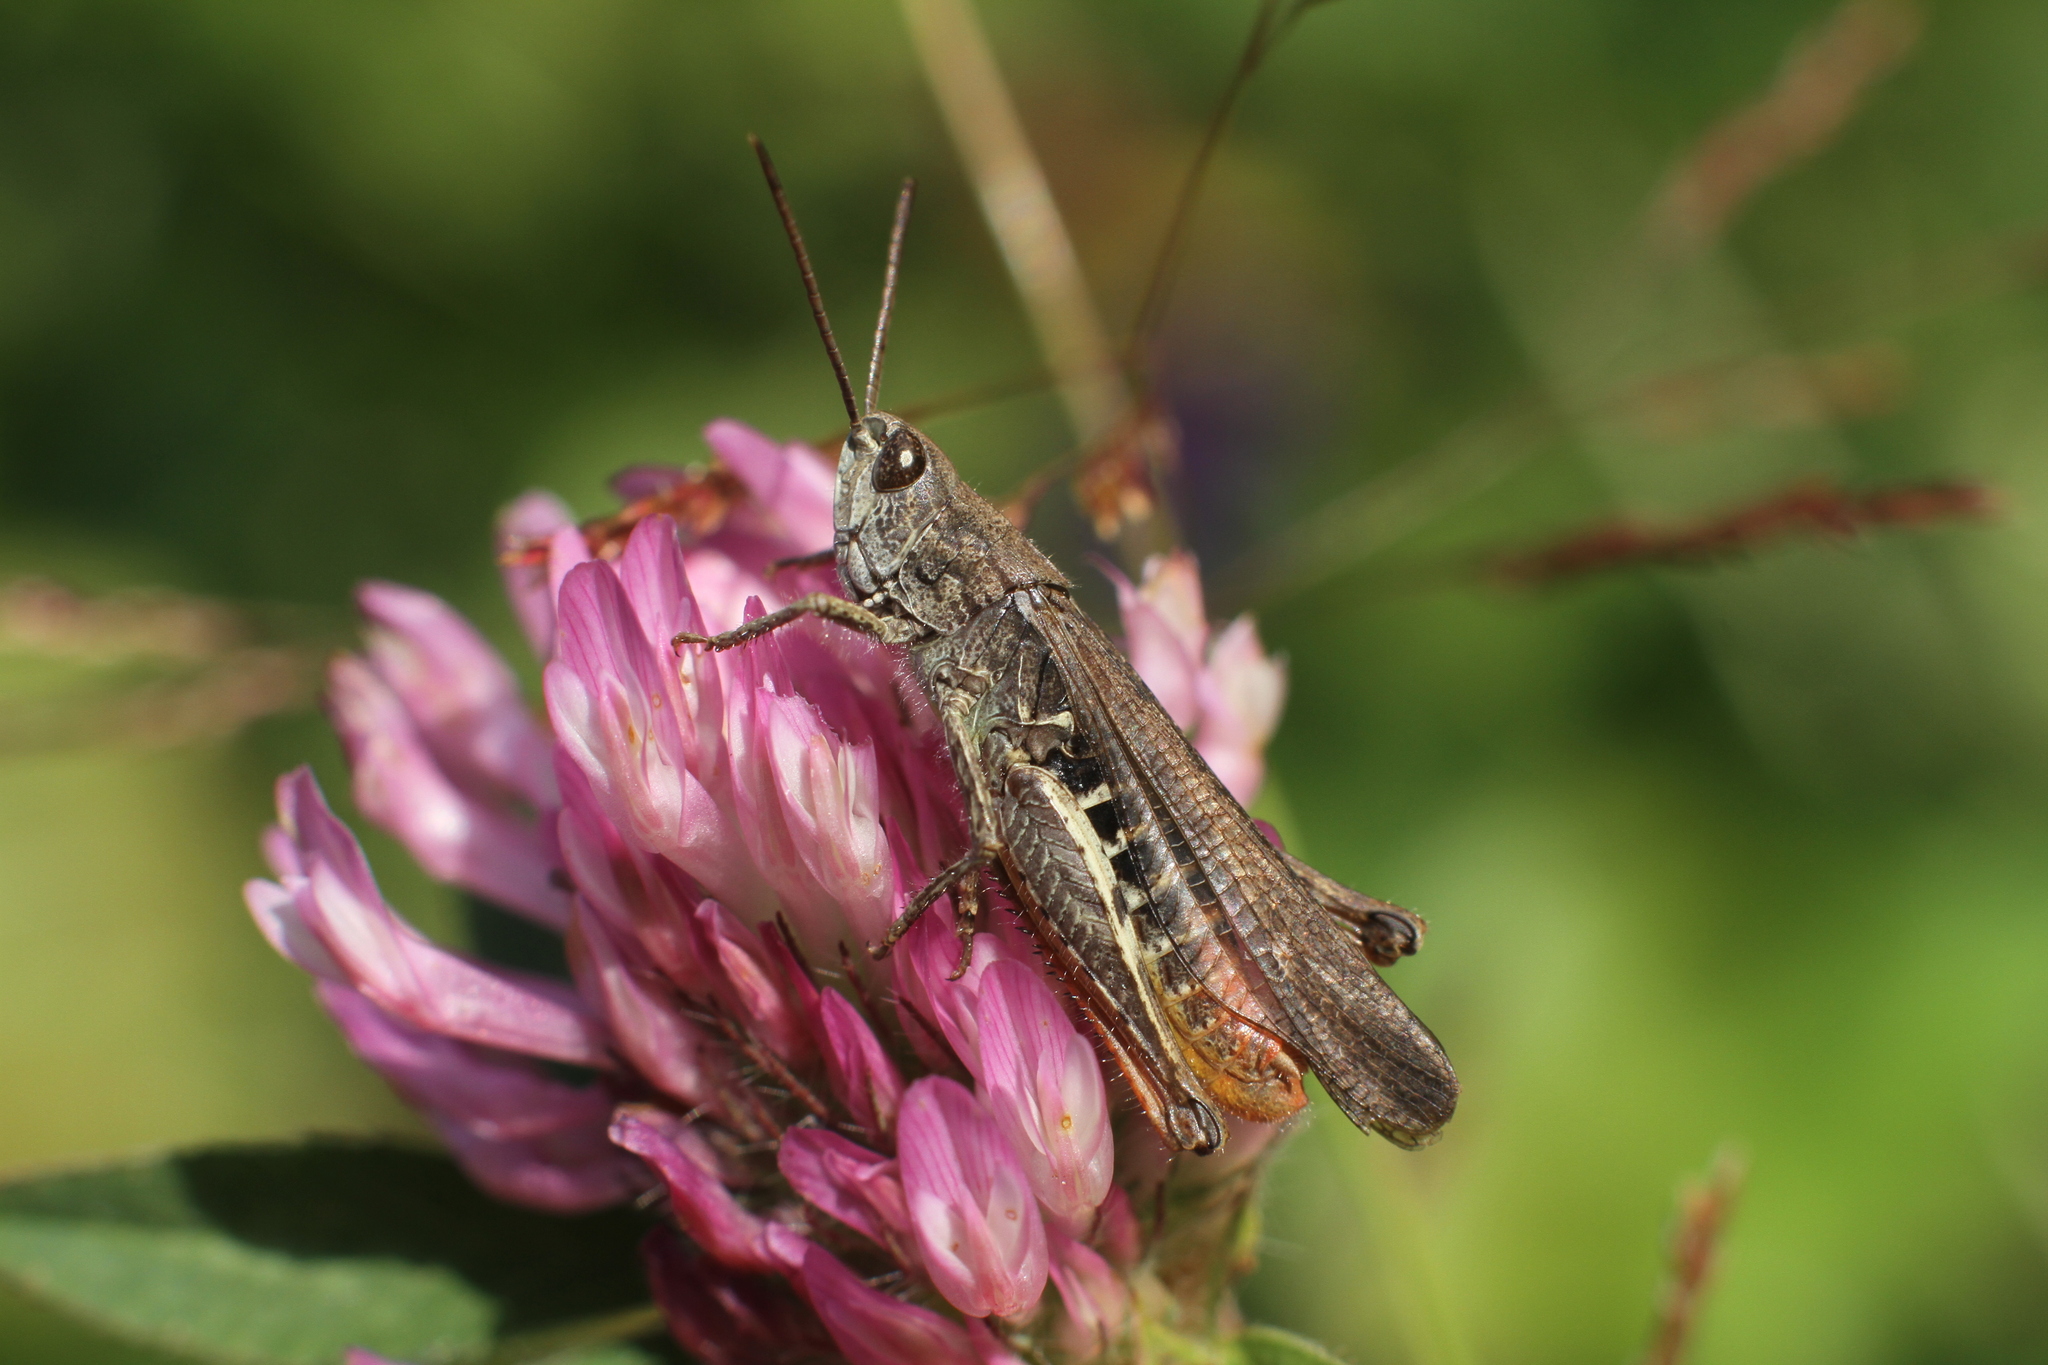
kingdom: Animalia
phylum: Arthropoda
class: Insecta
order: Orthoptera
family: Acrididae
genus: Chorthippus
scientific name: Chorthippus biguttulus
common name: Bow-winged grasshopper
